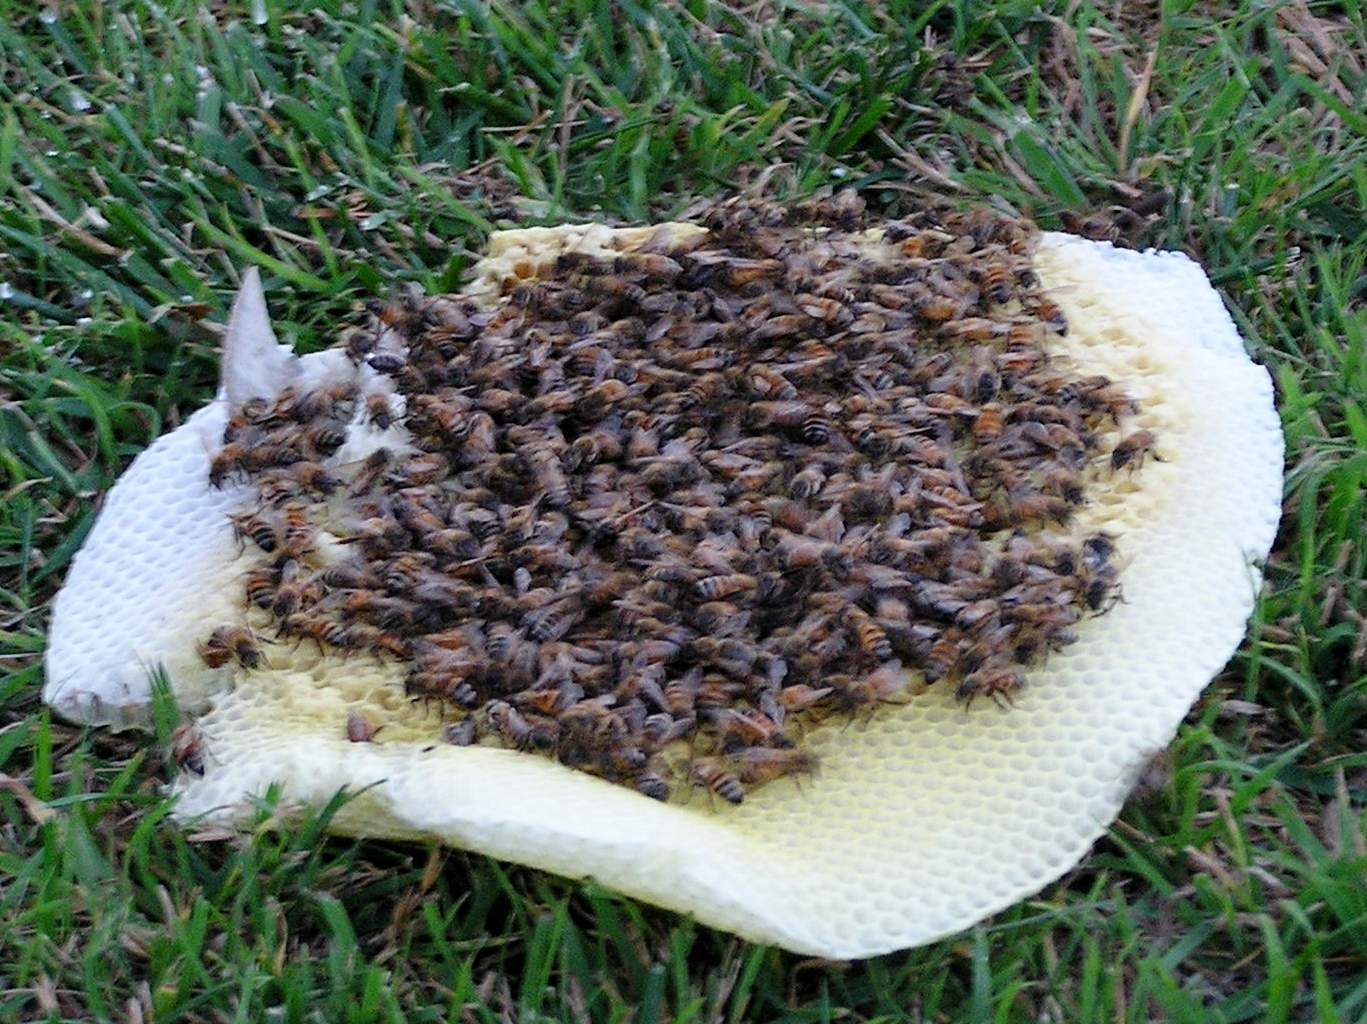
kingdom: Animalia
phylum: Arthropoda
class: Insecta
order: Hymenoptera
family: Apidae
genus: Apis
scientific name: Apis mellifera
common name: Honey bee
